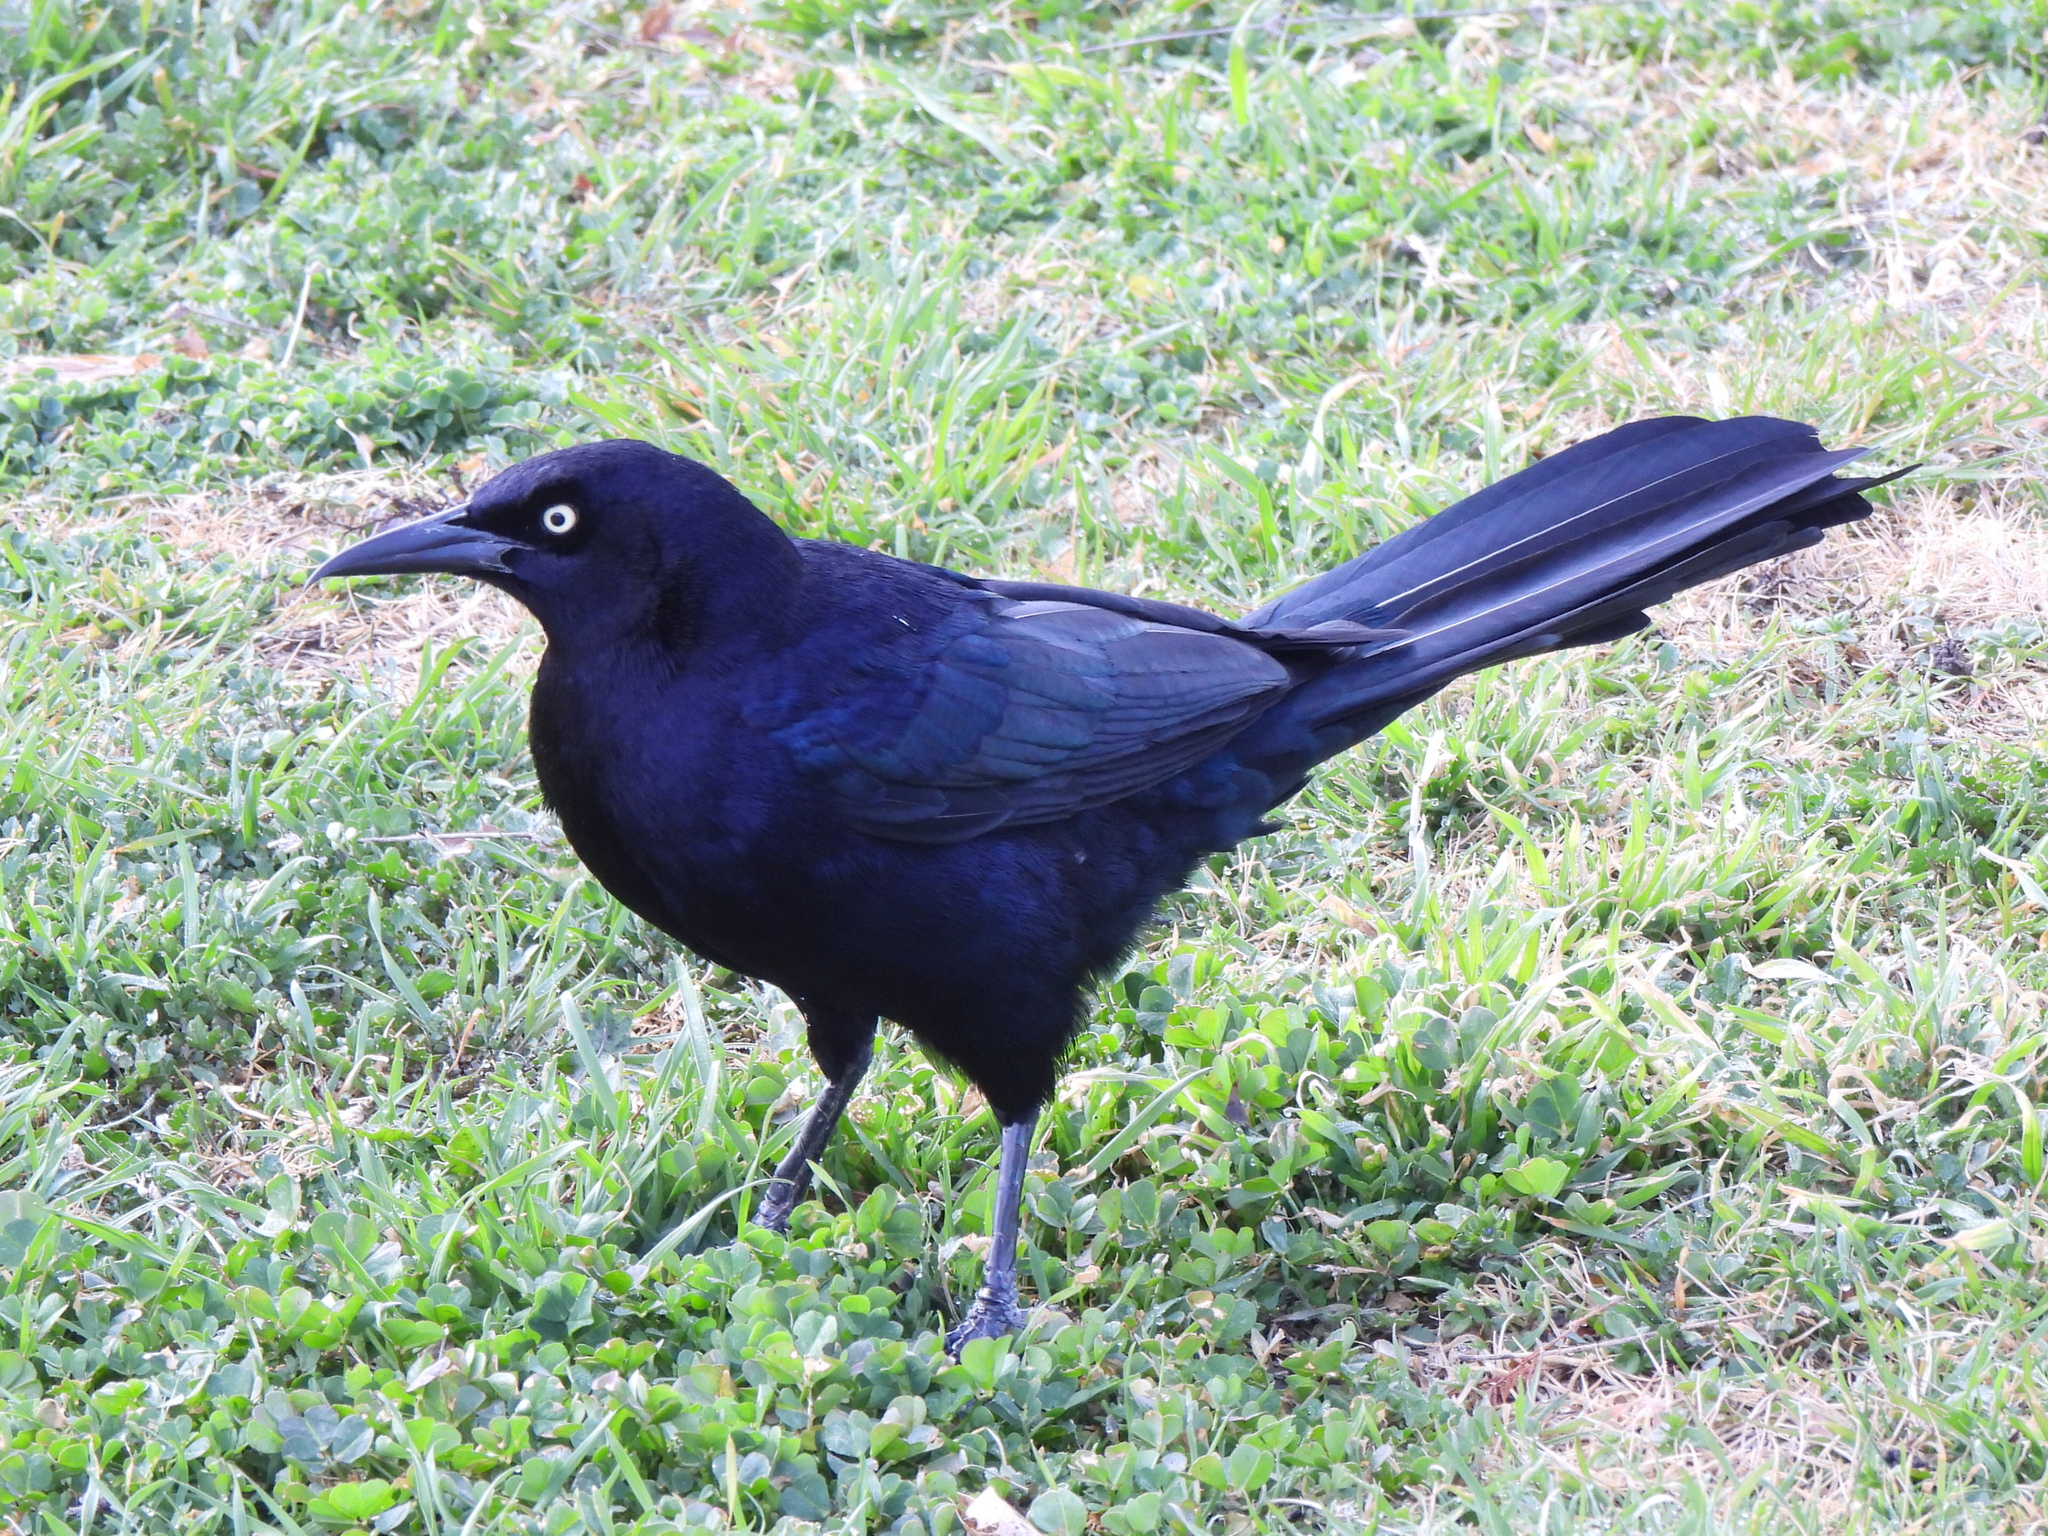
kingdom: Animalia
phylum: Chordata
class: Aves
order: Passeriformes
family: Icteridae
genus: Quiscalus
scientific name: Quiscalus mexicanus
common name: Great-tailed grackle
